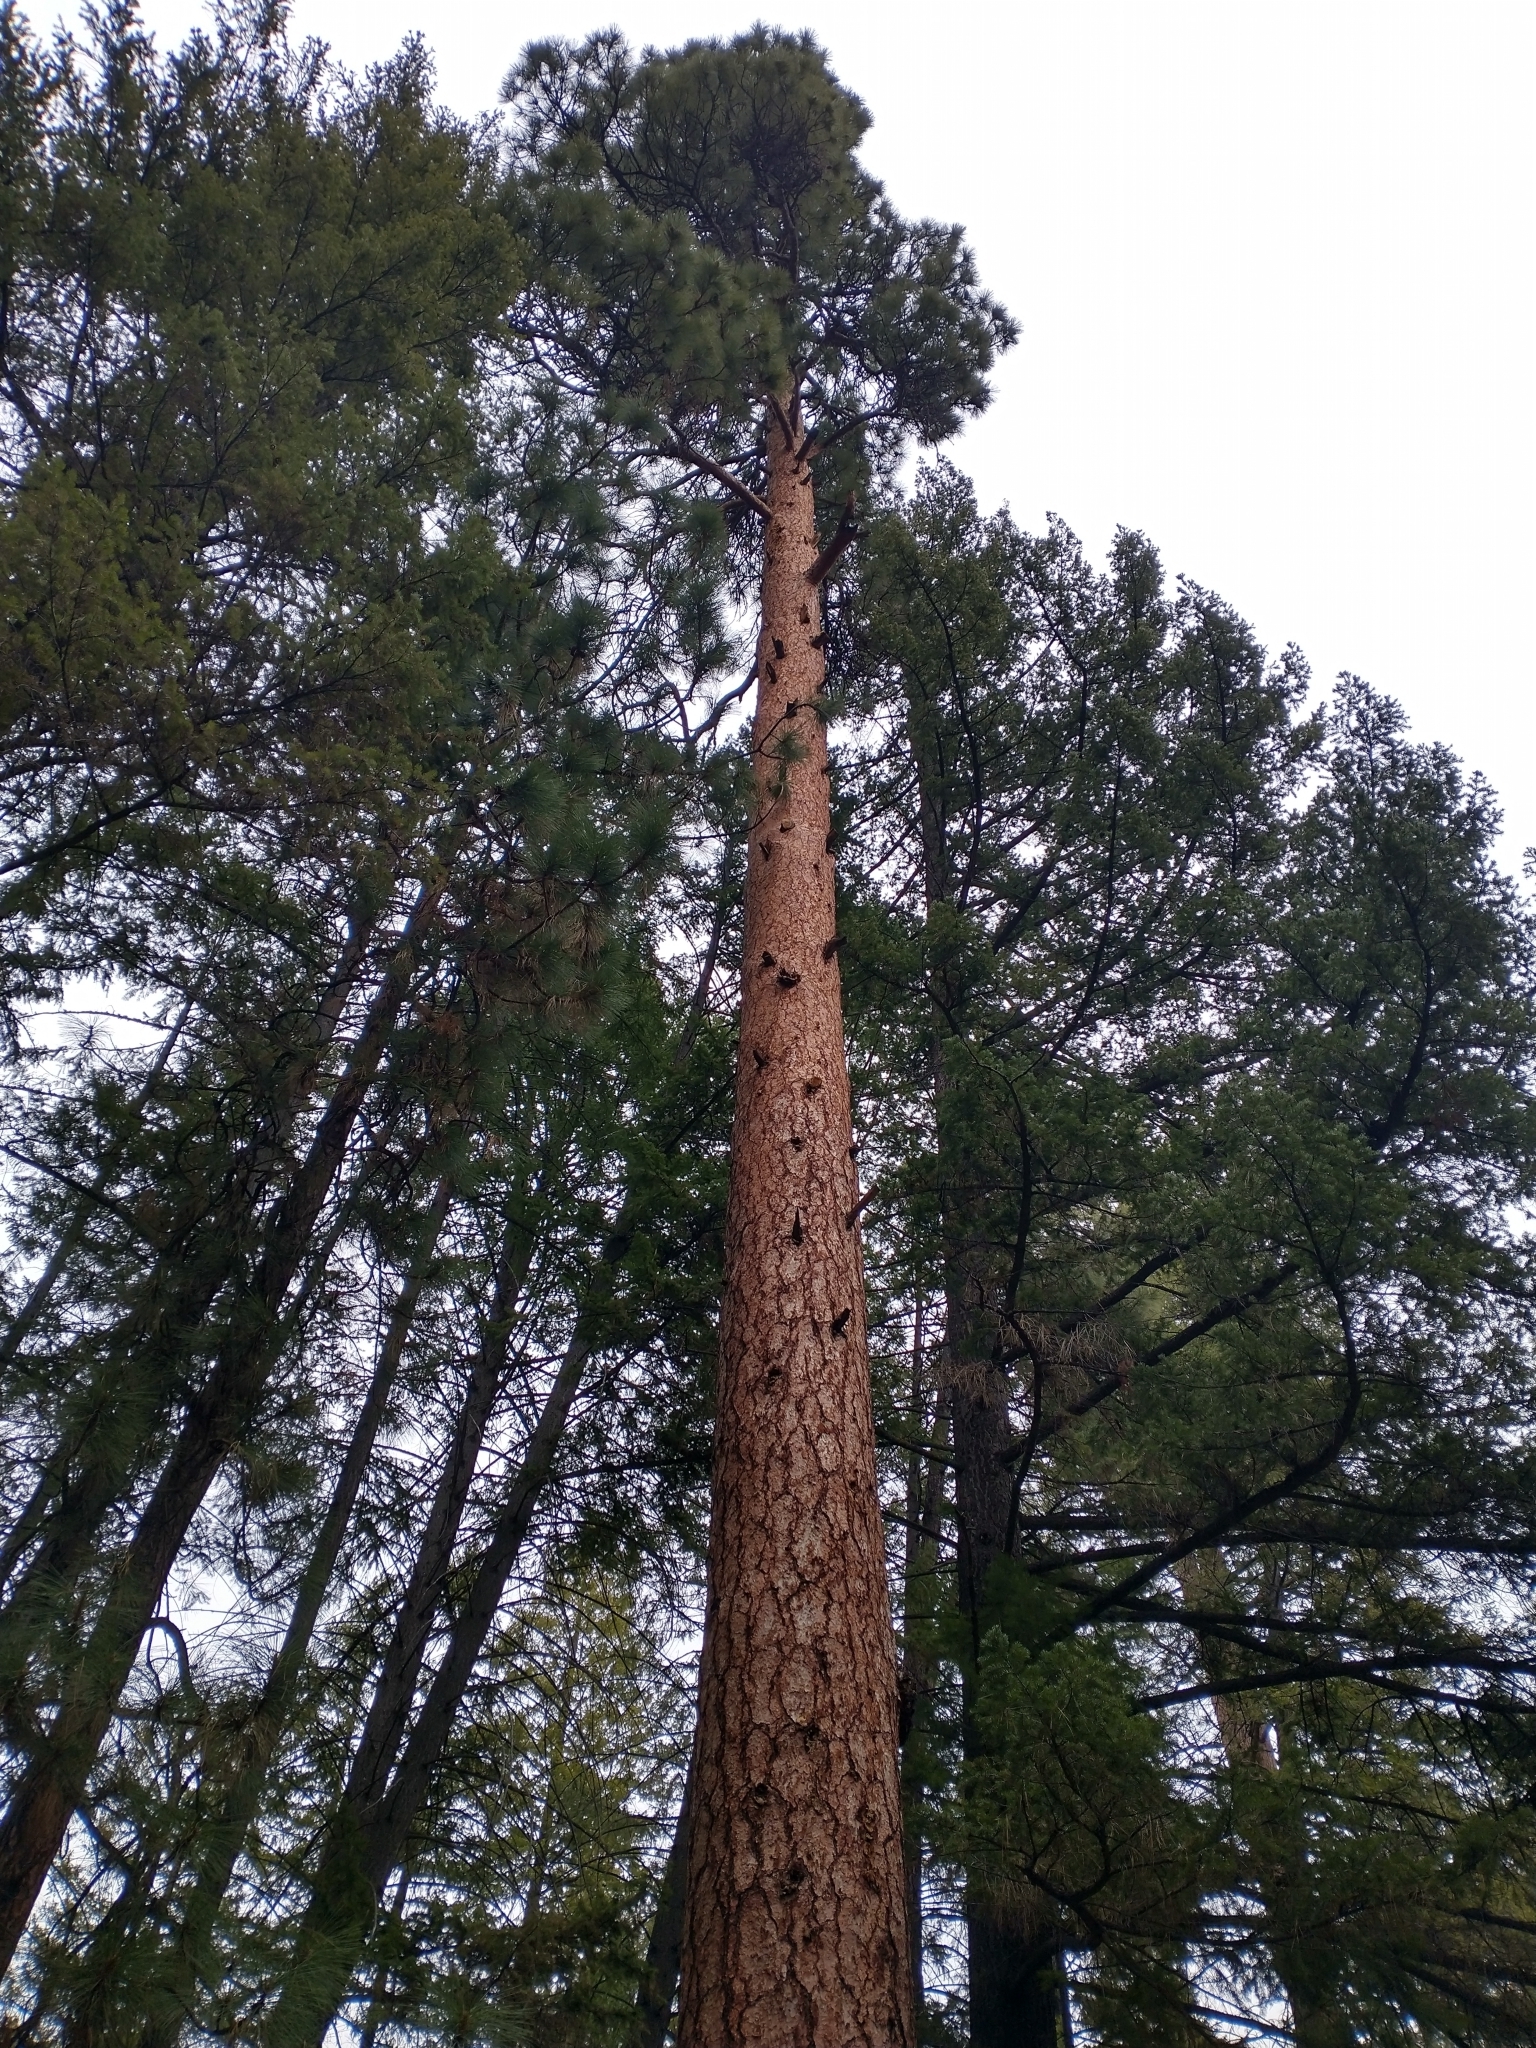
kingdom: Plantae
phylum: Tracheophyta
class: Pinopsida
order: Pinales
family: Pinaceae
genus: Pinus
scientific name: Pinus ponderosa
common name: Western yellow-pine
